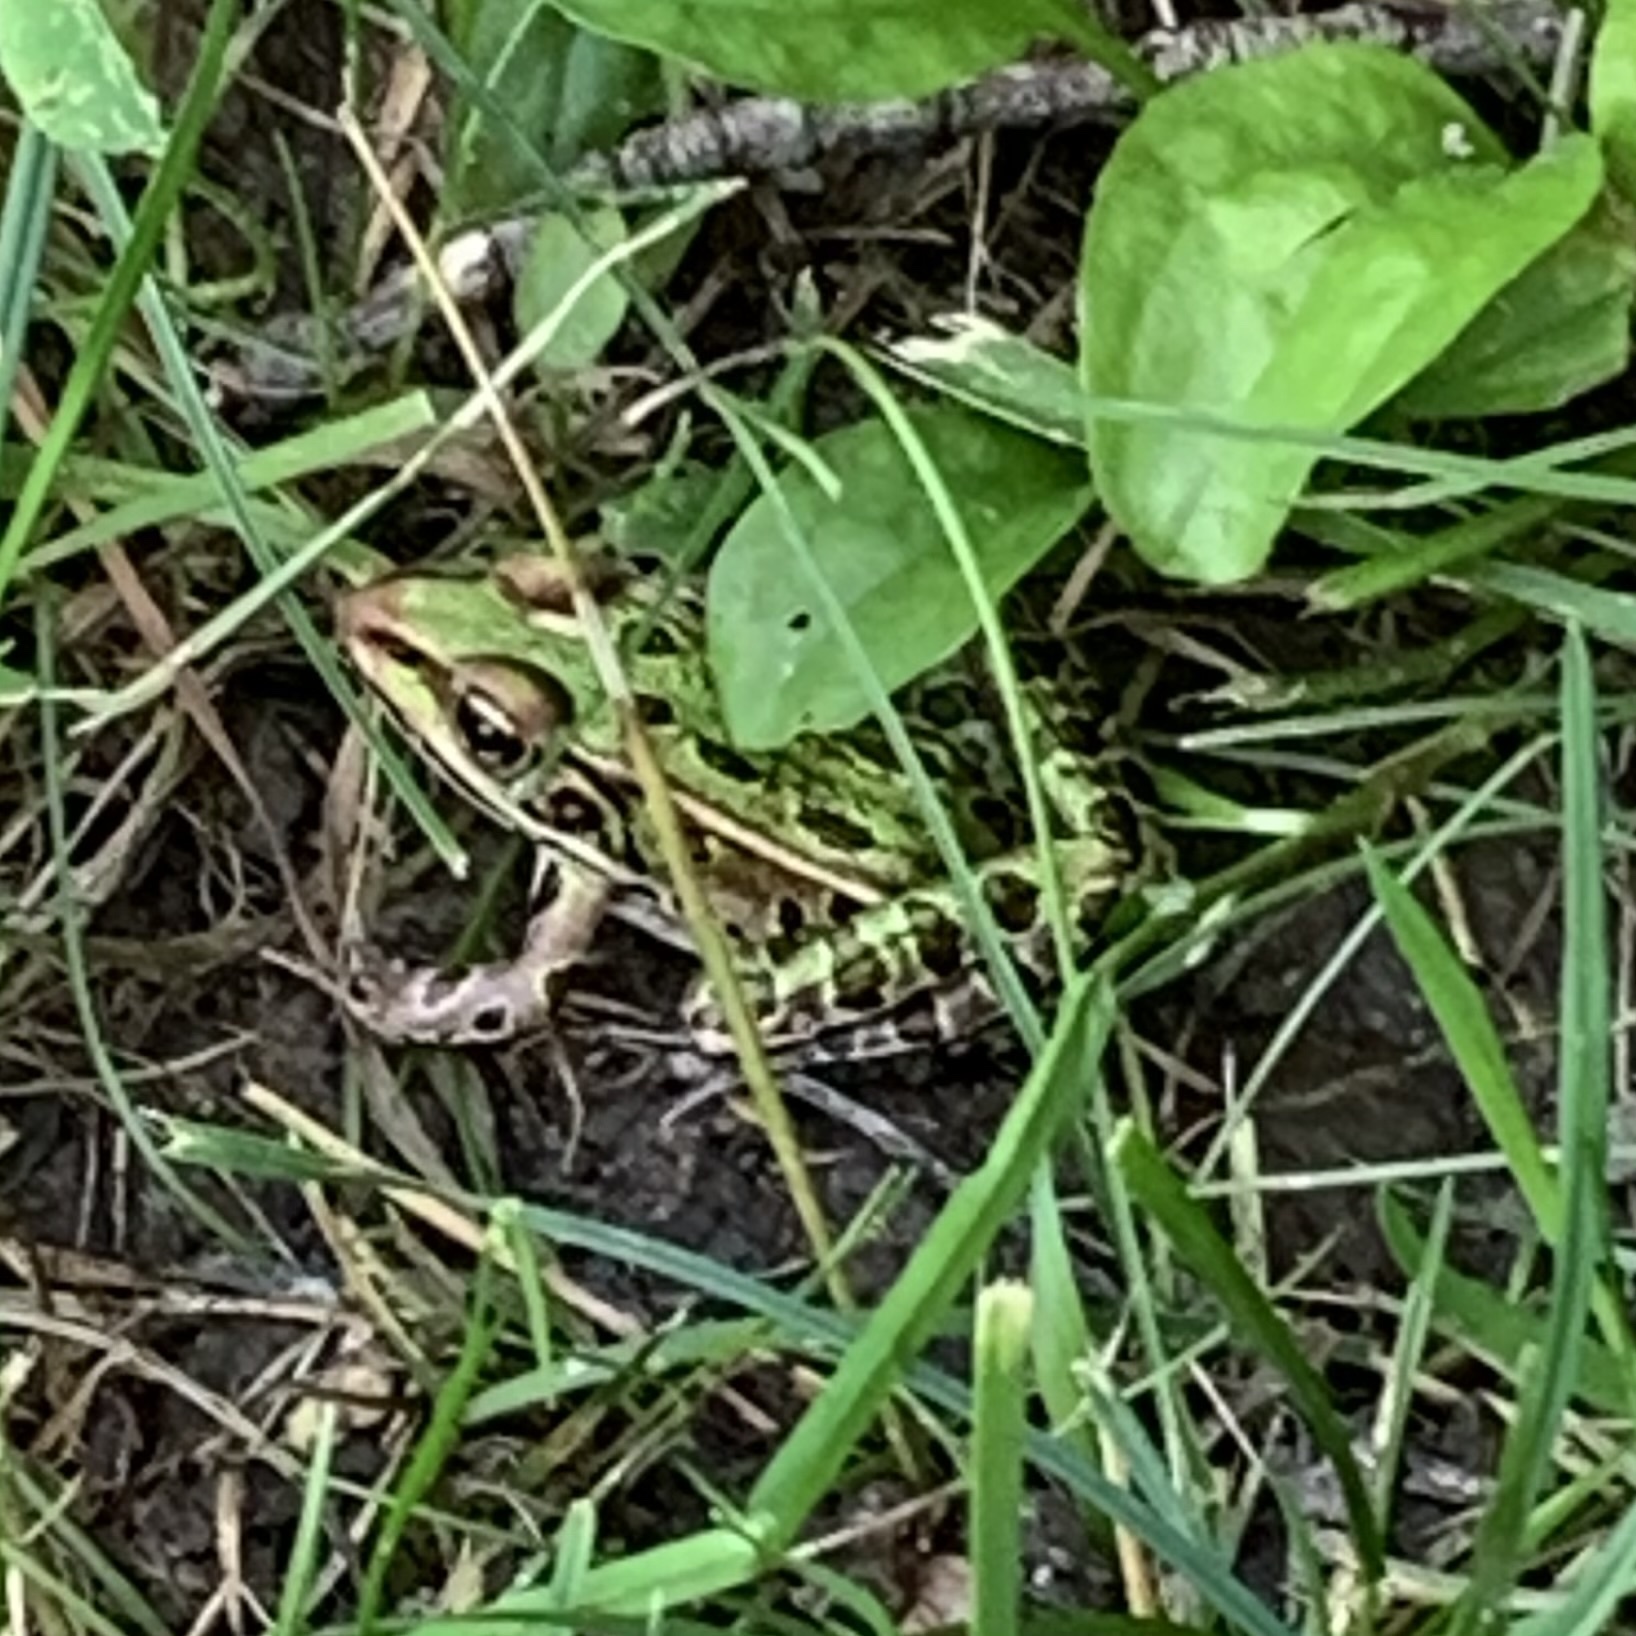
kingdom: Animalia
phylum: Chordata
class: Amphibia
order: Anura
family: Ranidae
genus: Lithobates
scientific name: Lithobates pipiens
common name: Northern leopard frog
